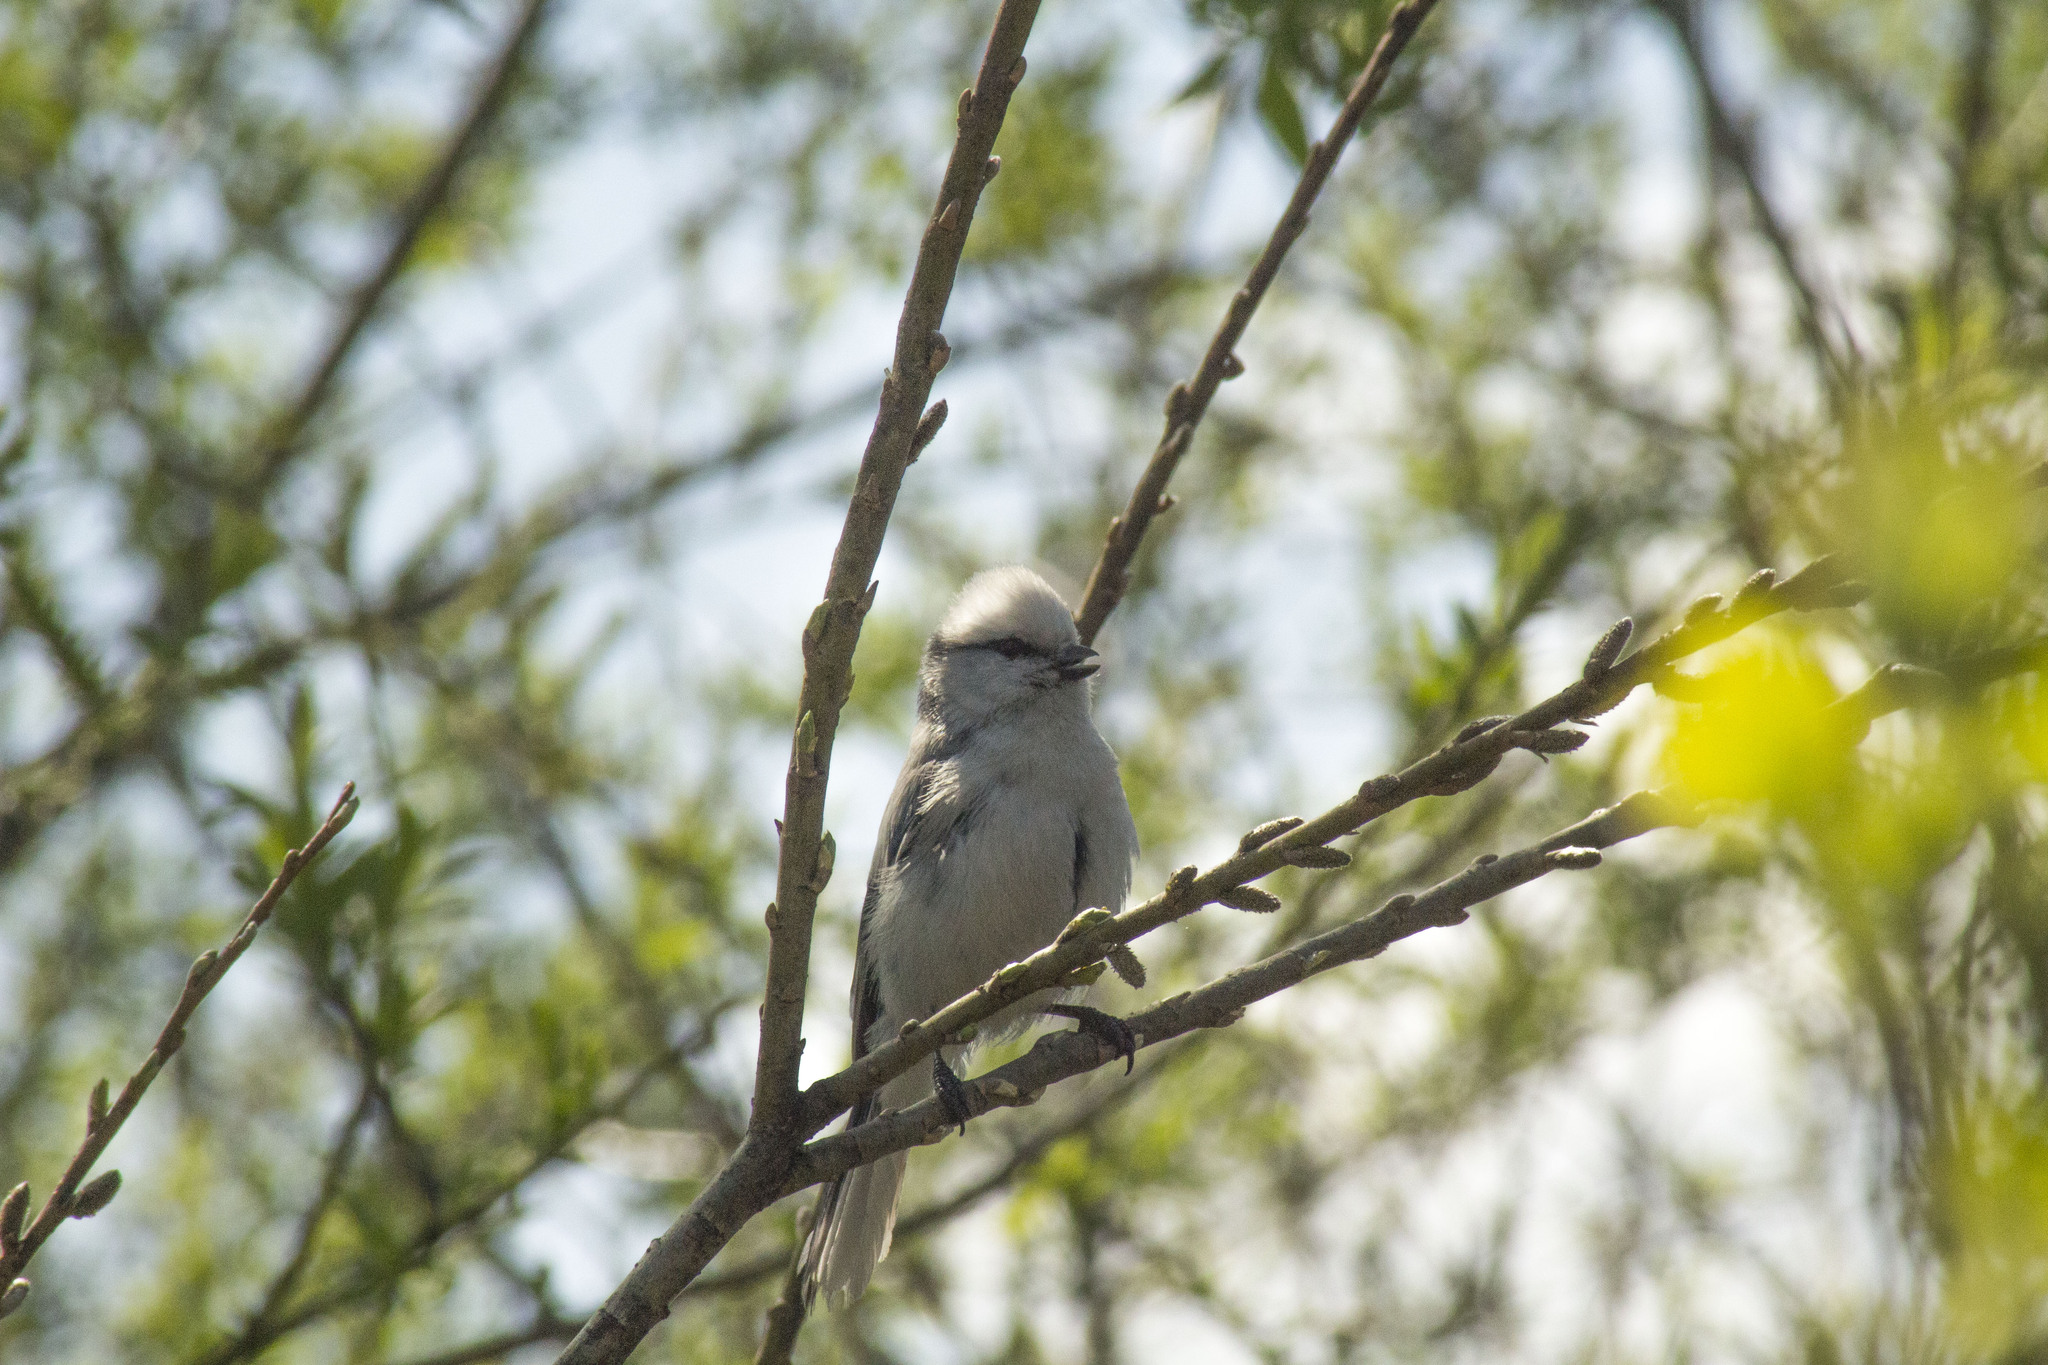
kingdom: Animalia
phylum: Chordata
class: Aves
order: Passeriformes
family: Paridae
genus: Cyanistes
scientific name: Cyanistes cyanus
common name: Azure tit
